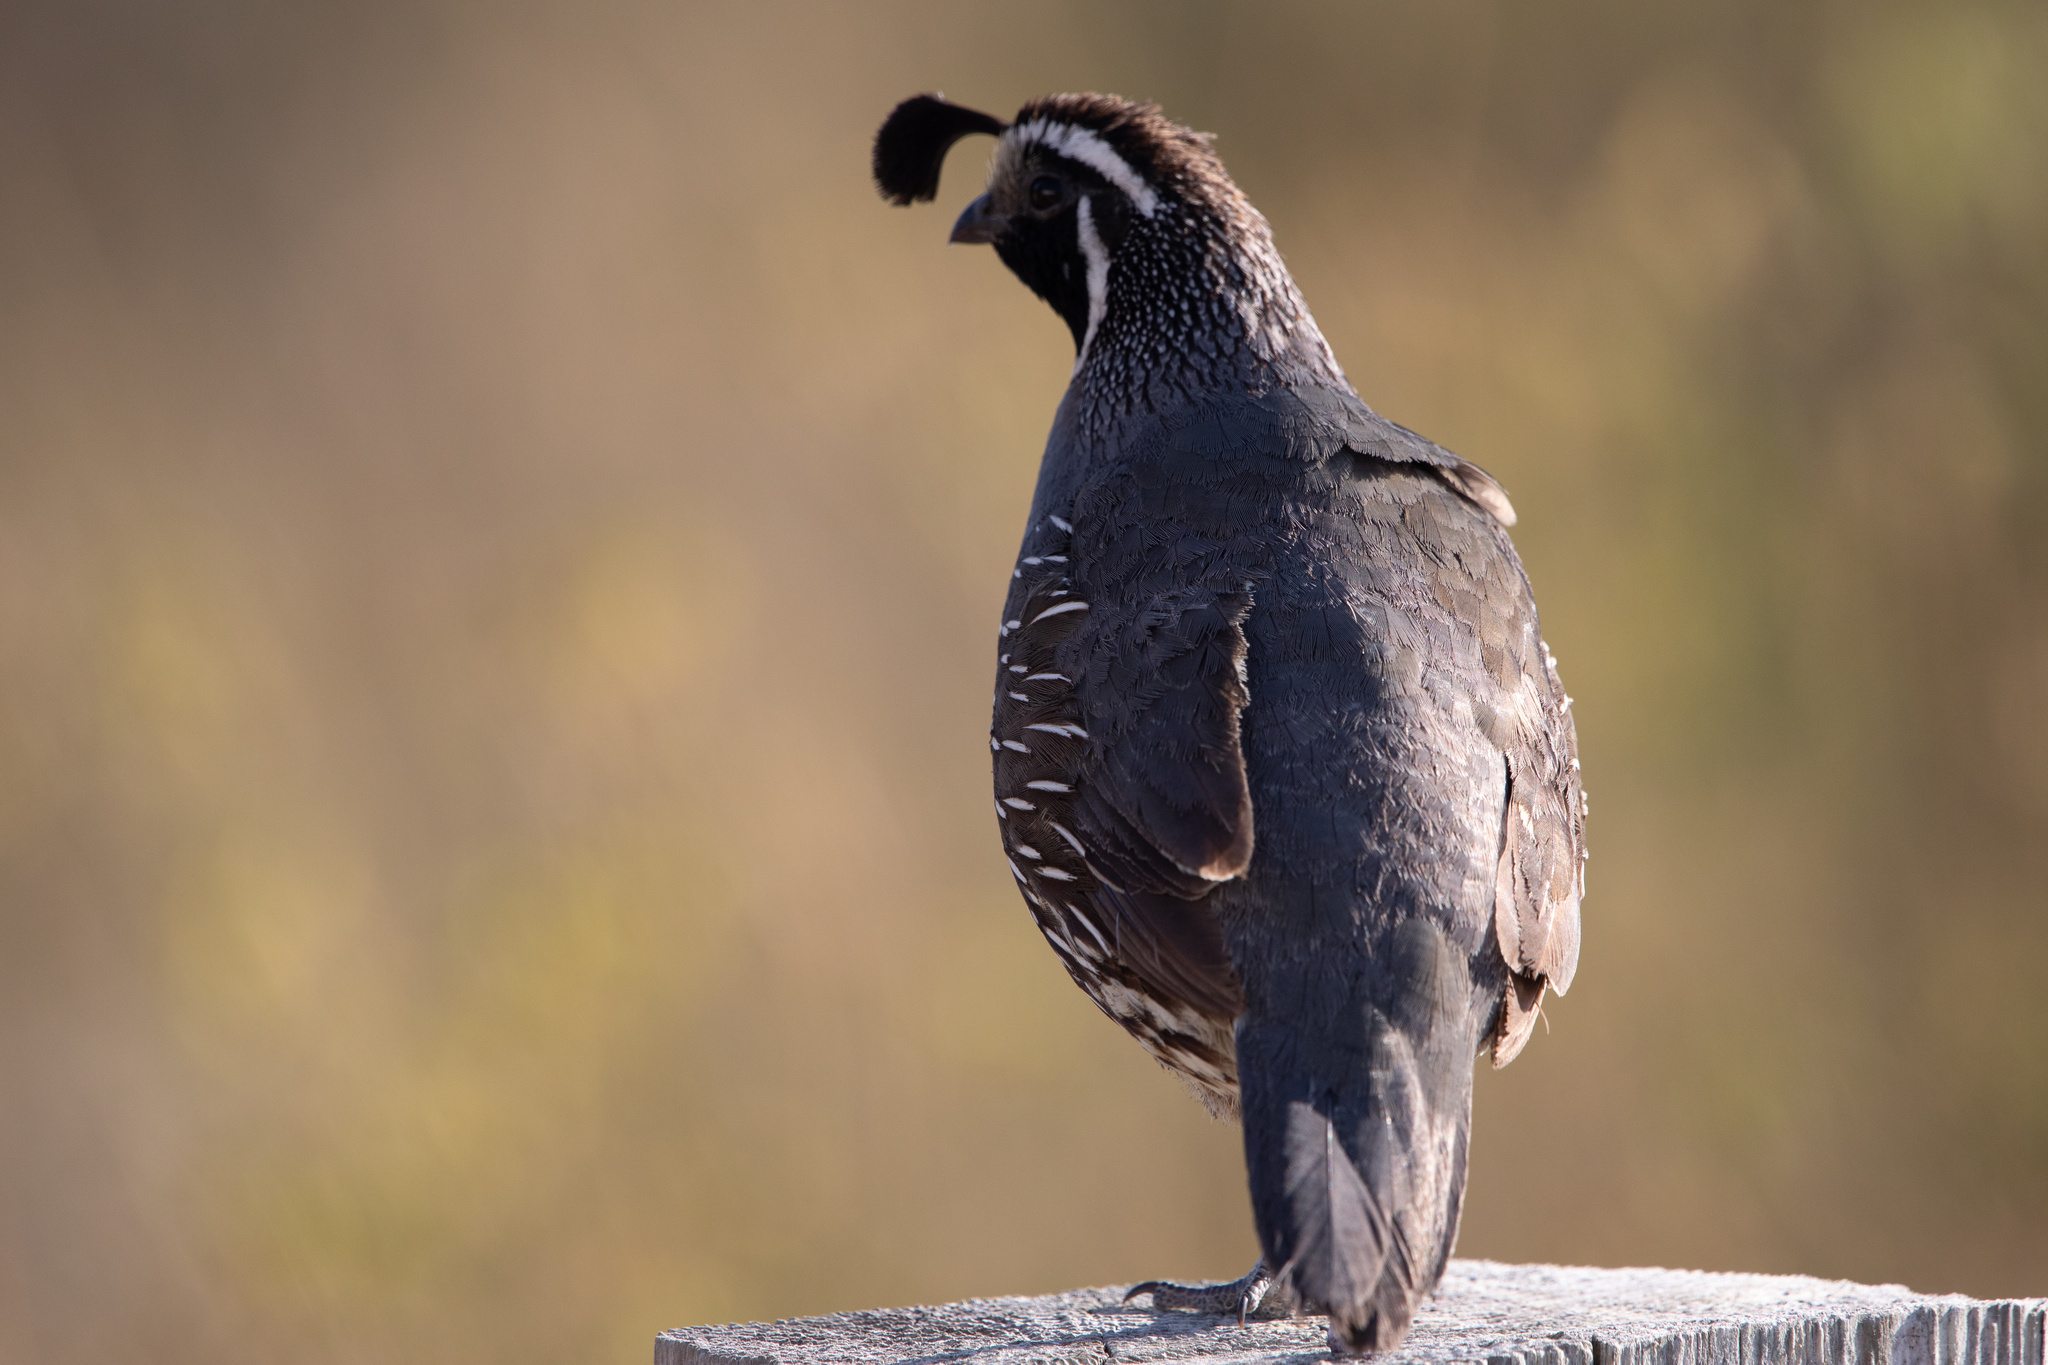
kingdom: Animalia
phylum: Chordata
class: Aves
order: Galliformes
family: Odontophoridae
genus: Callipepla
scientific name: Callipepla californica
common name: California quail
